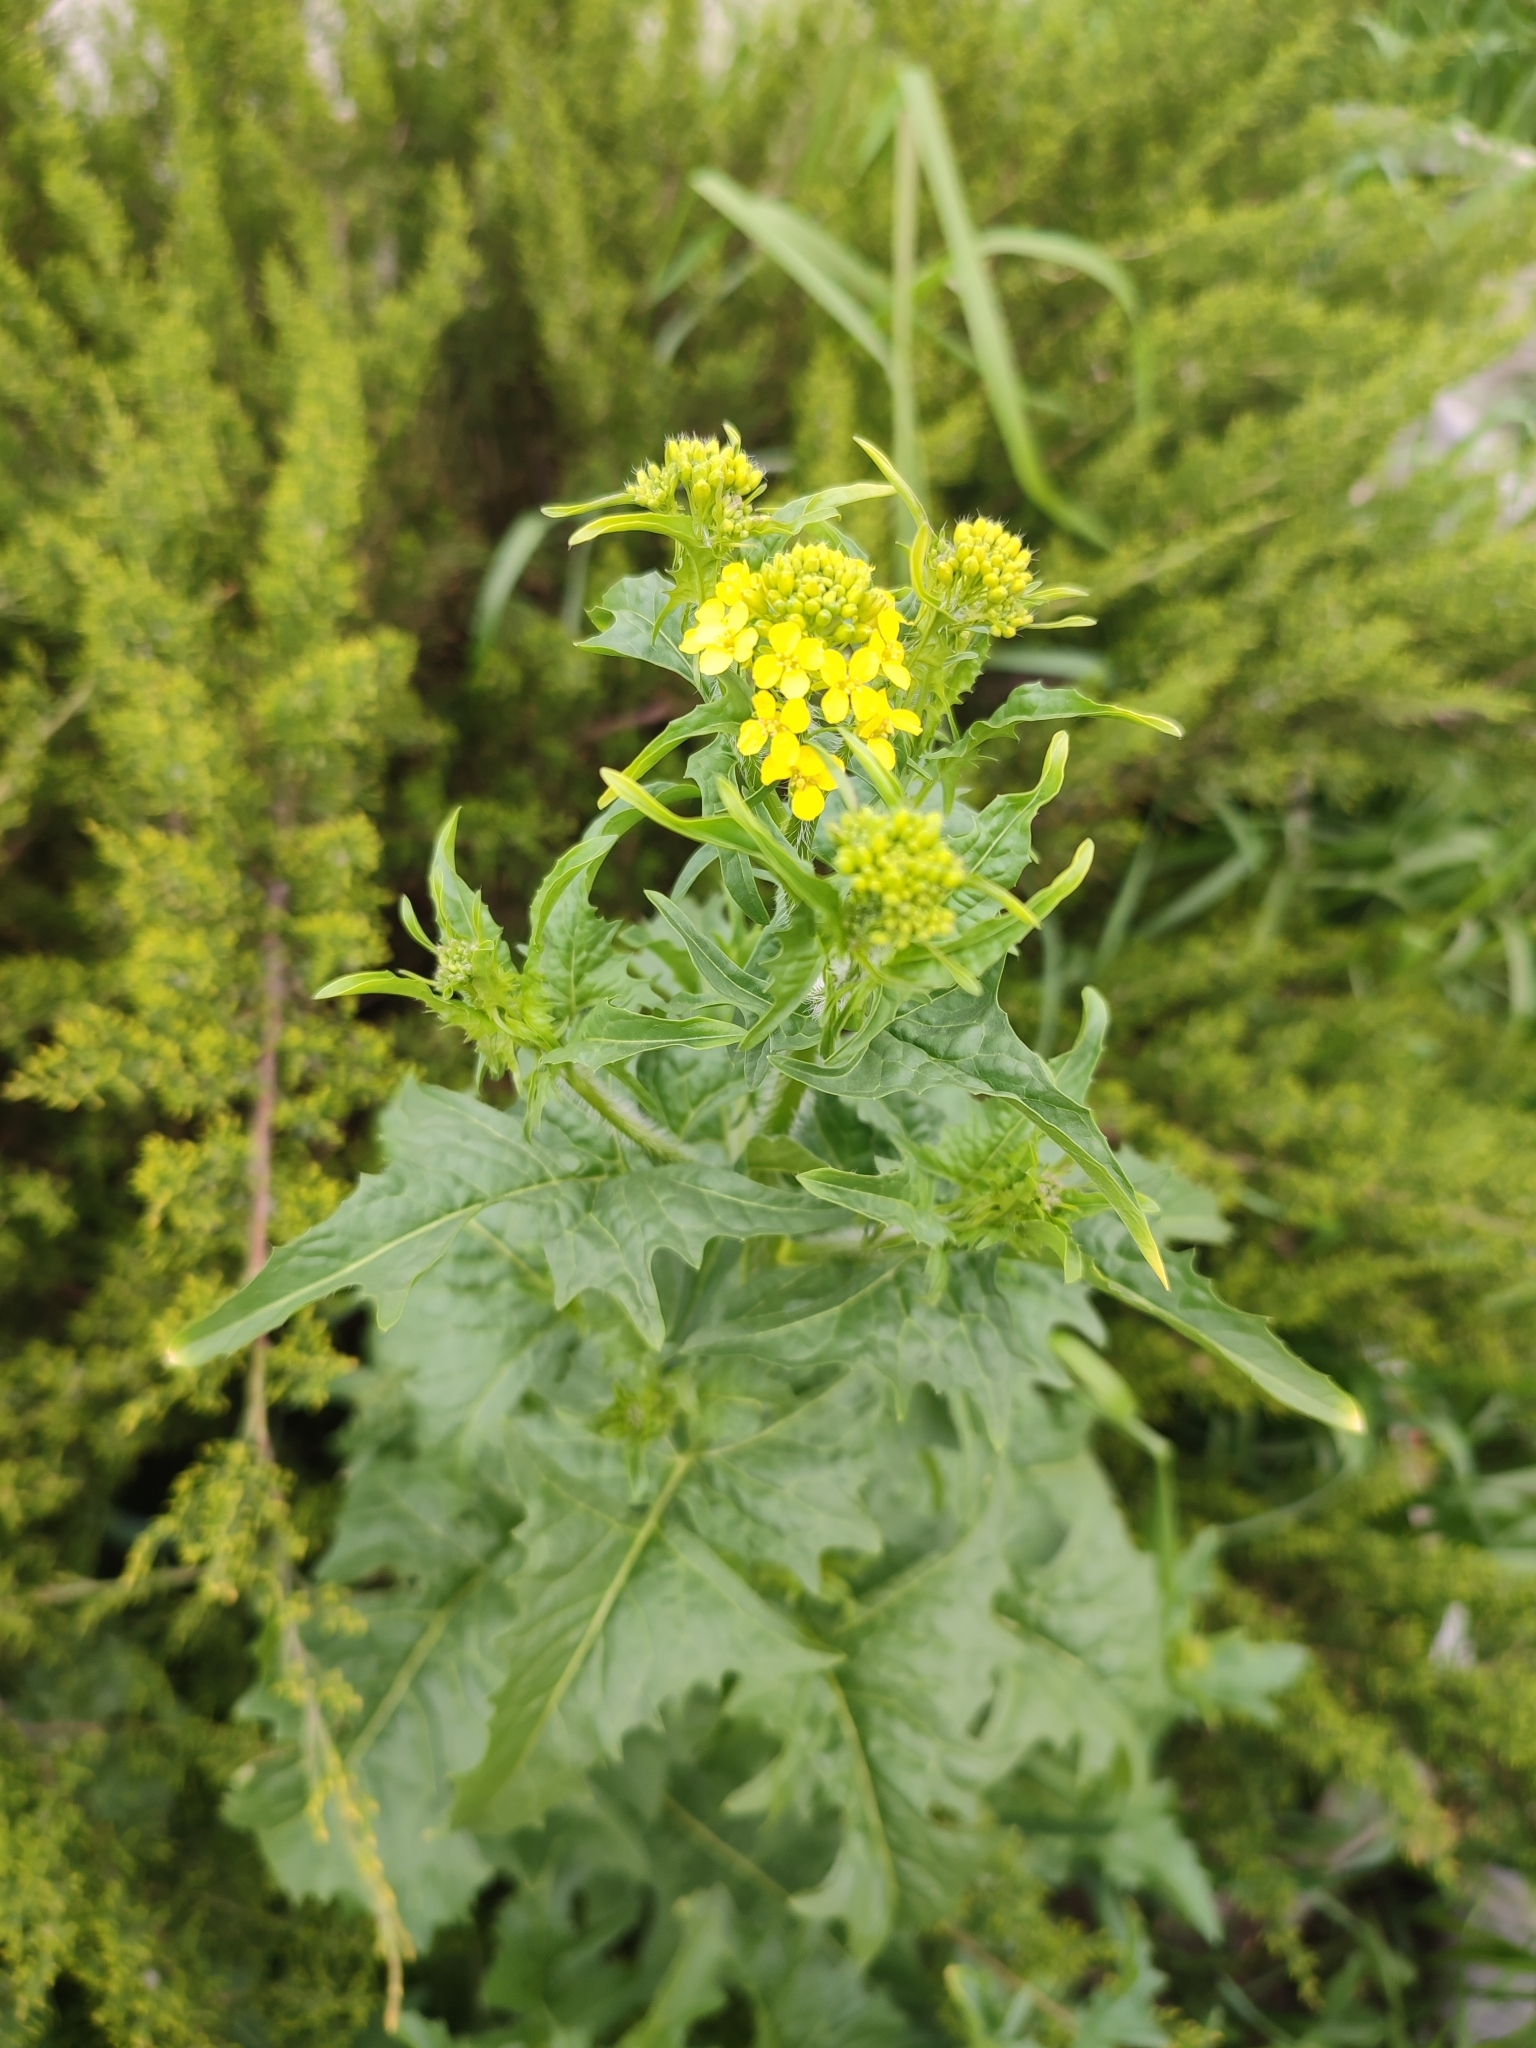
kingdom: Plantae
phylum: Tracheophyta
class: Magnoliopsida
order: Brassicales
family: Brassicaceae
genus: Sisymbrium
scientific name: Sisymbrium loeselii
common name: False london-rocket
